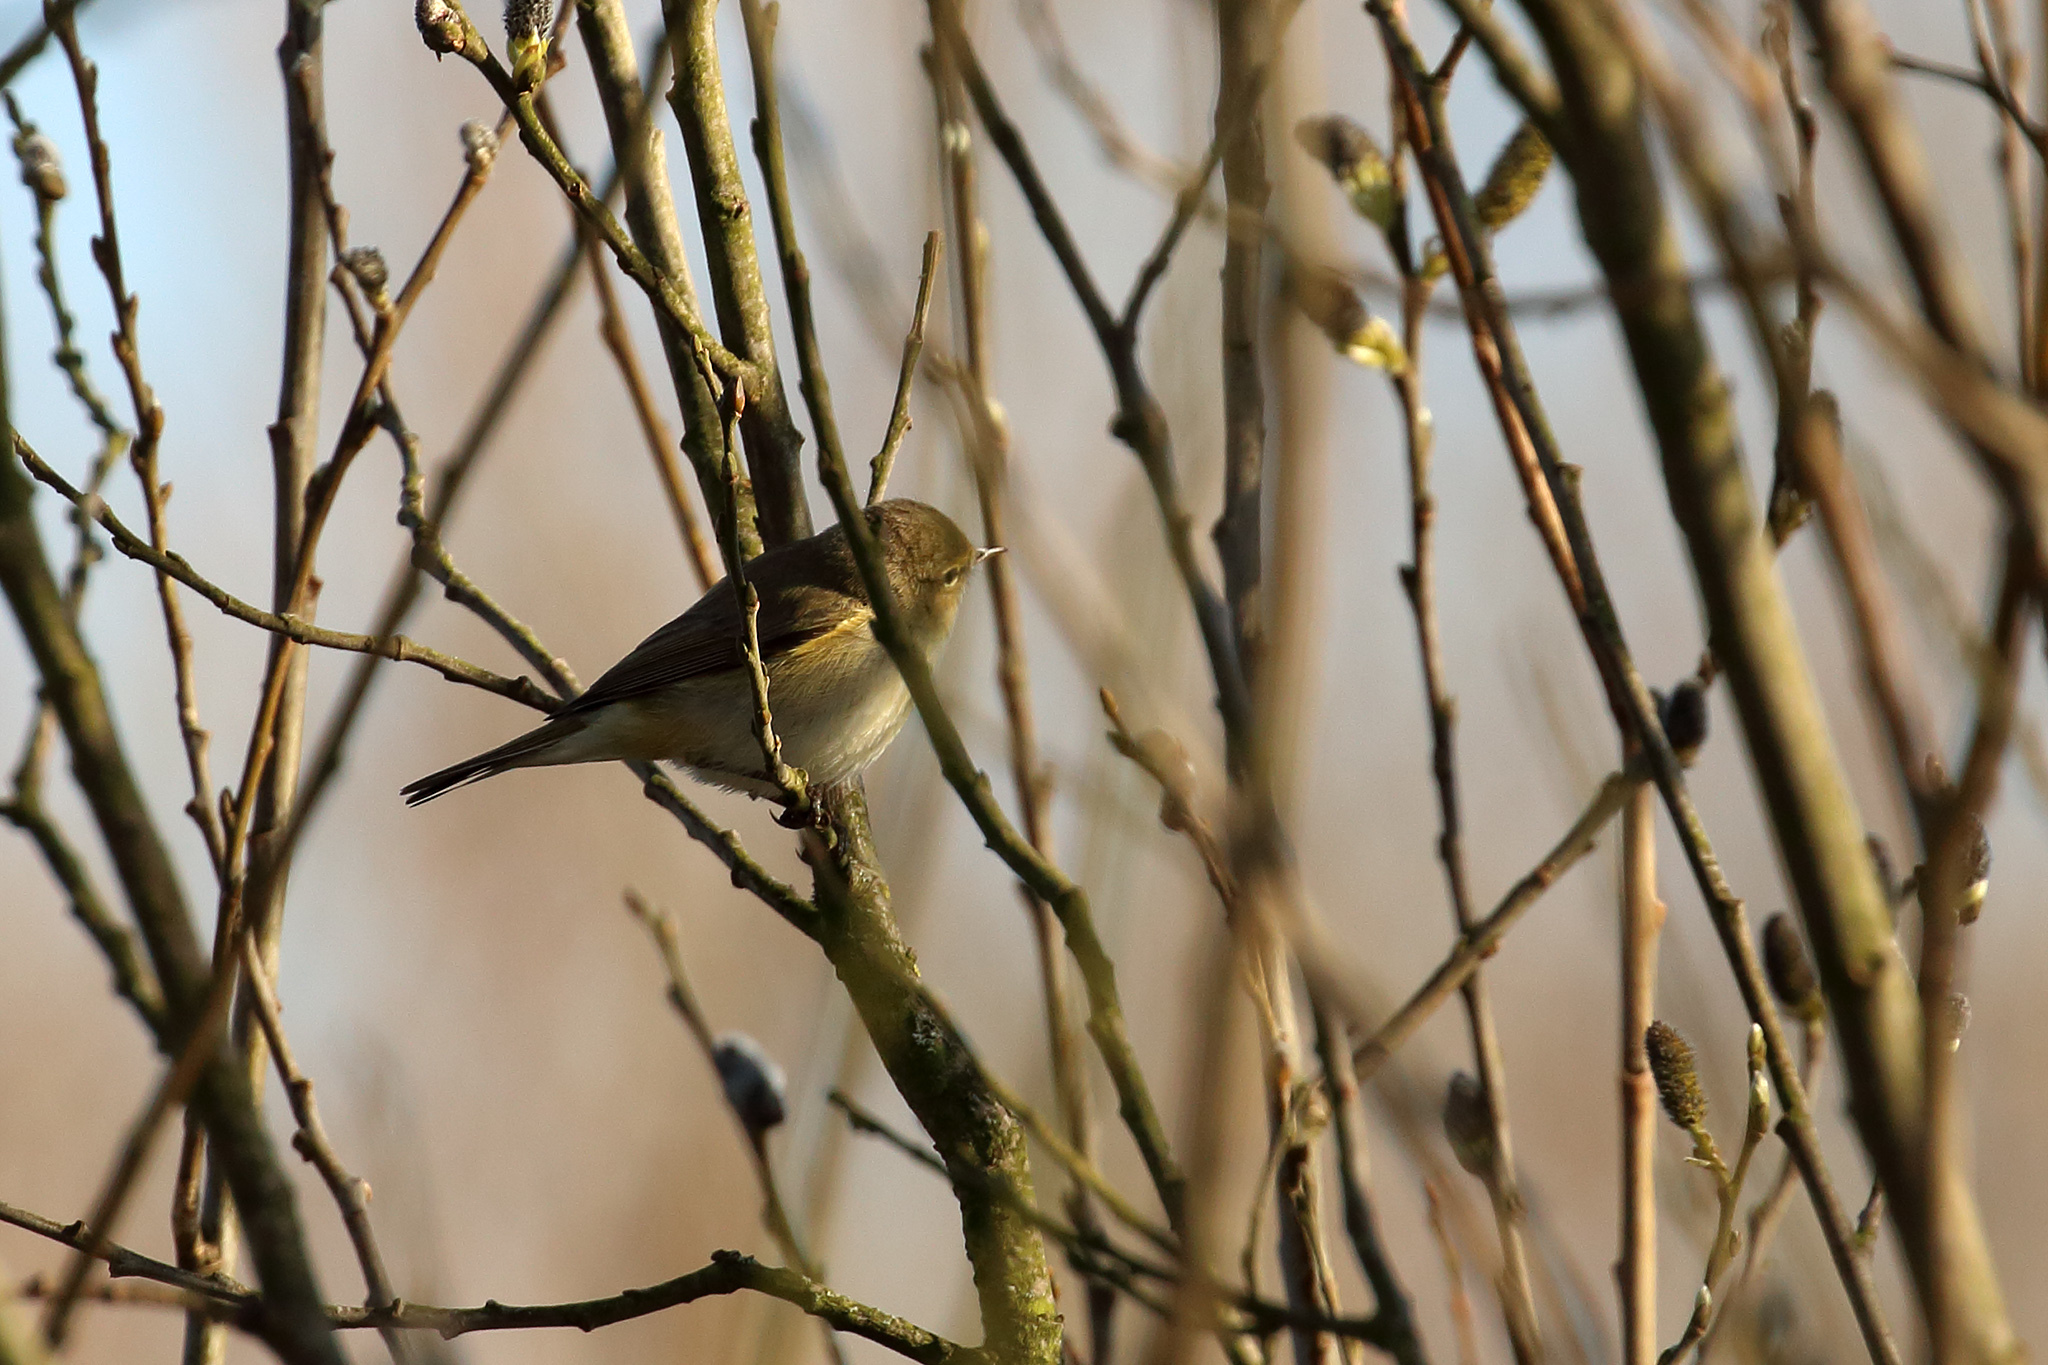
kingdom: Animalia
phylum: Chordata
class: Aves
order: Passeriformes
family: Phylloscopidae
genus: Phylloscopus
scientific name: Phylloscopus collybita
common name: Common chiffchaff
